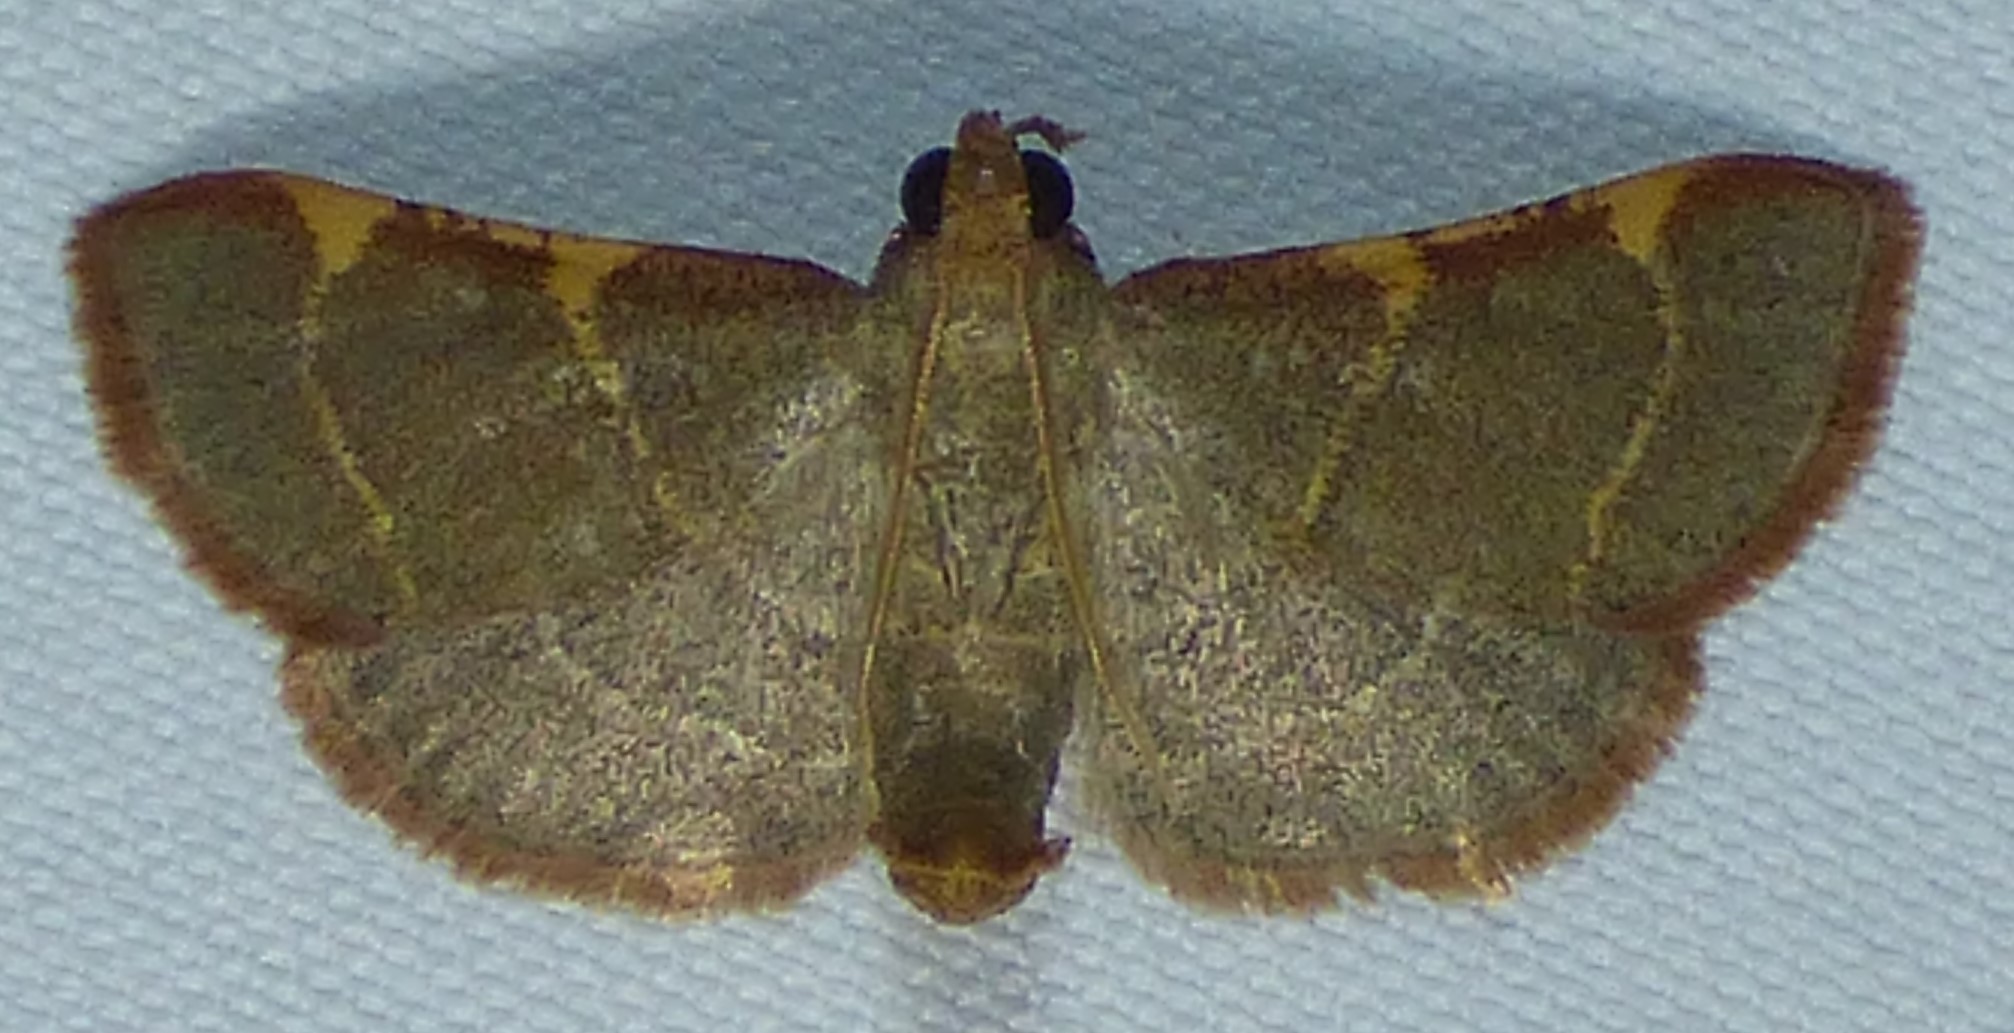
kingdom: Animalia
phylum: Arthropoda
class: Insecta
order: Lepidoptera
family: Pyralidae
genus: Hypsopygia
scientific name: Hypsopygia binodulalis
